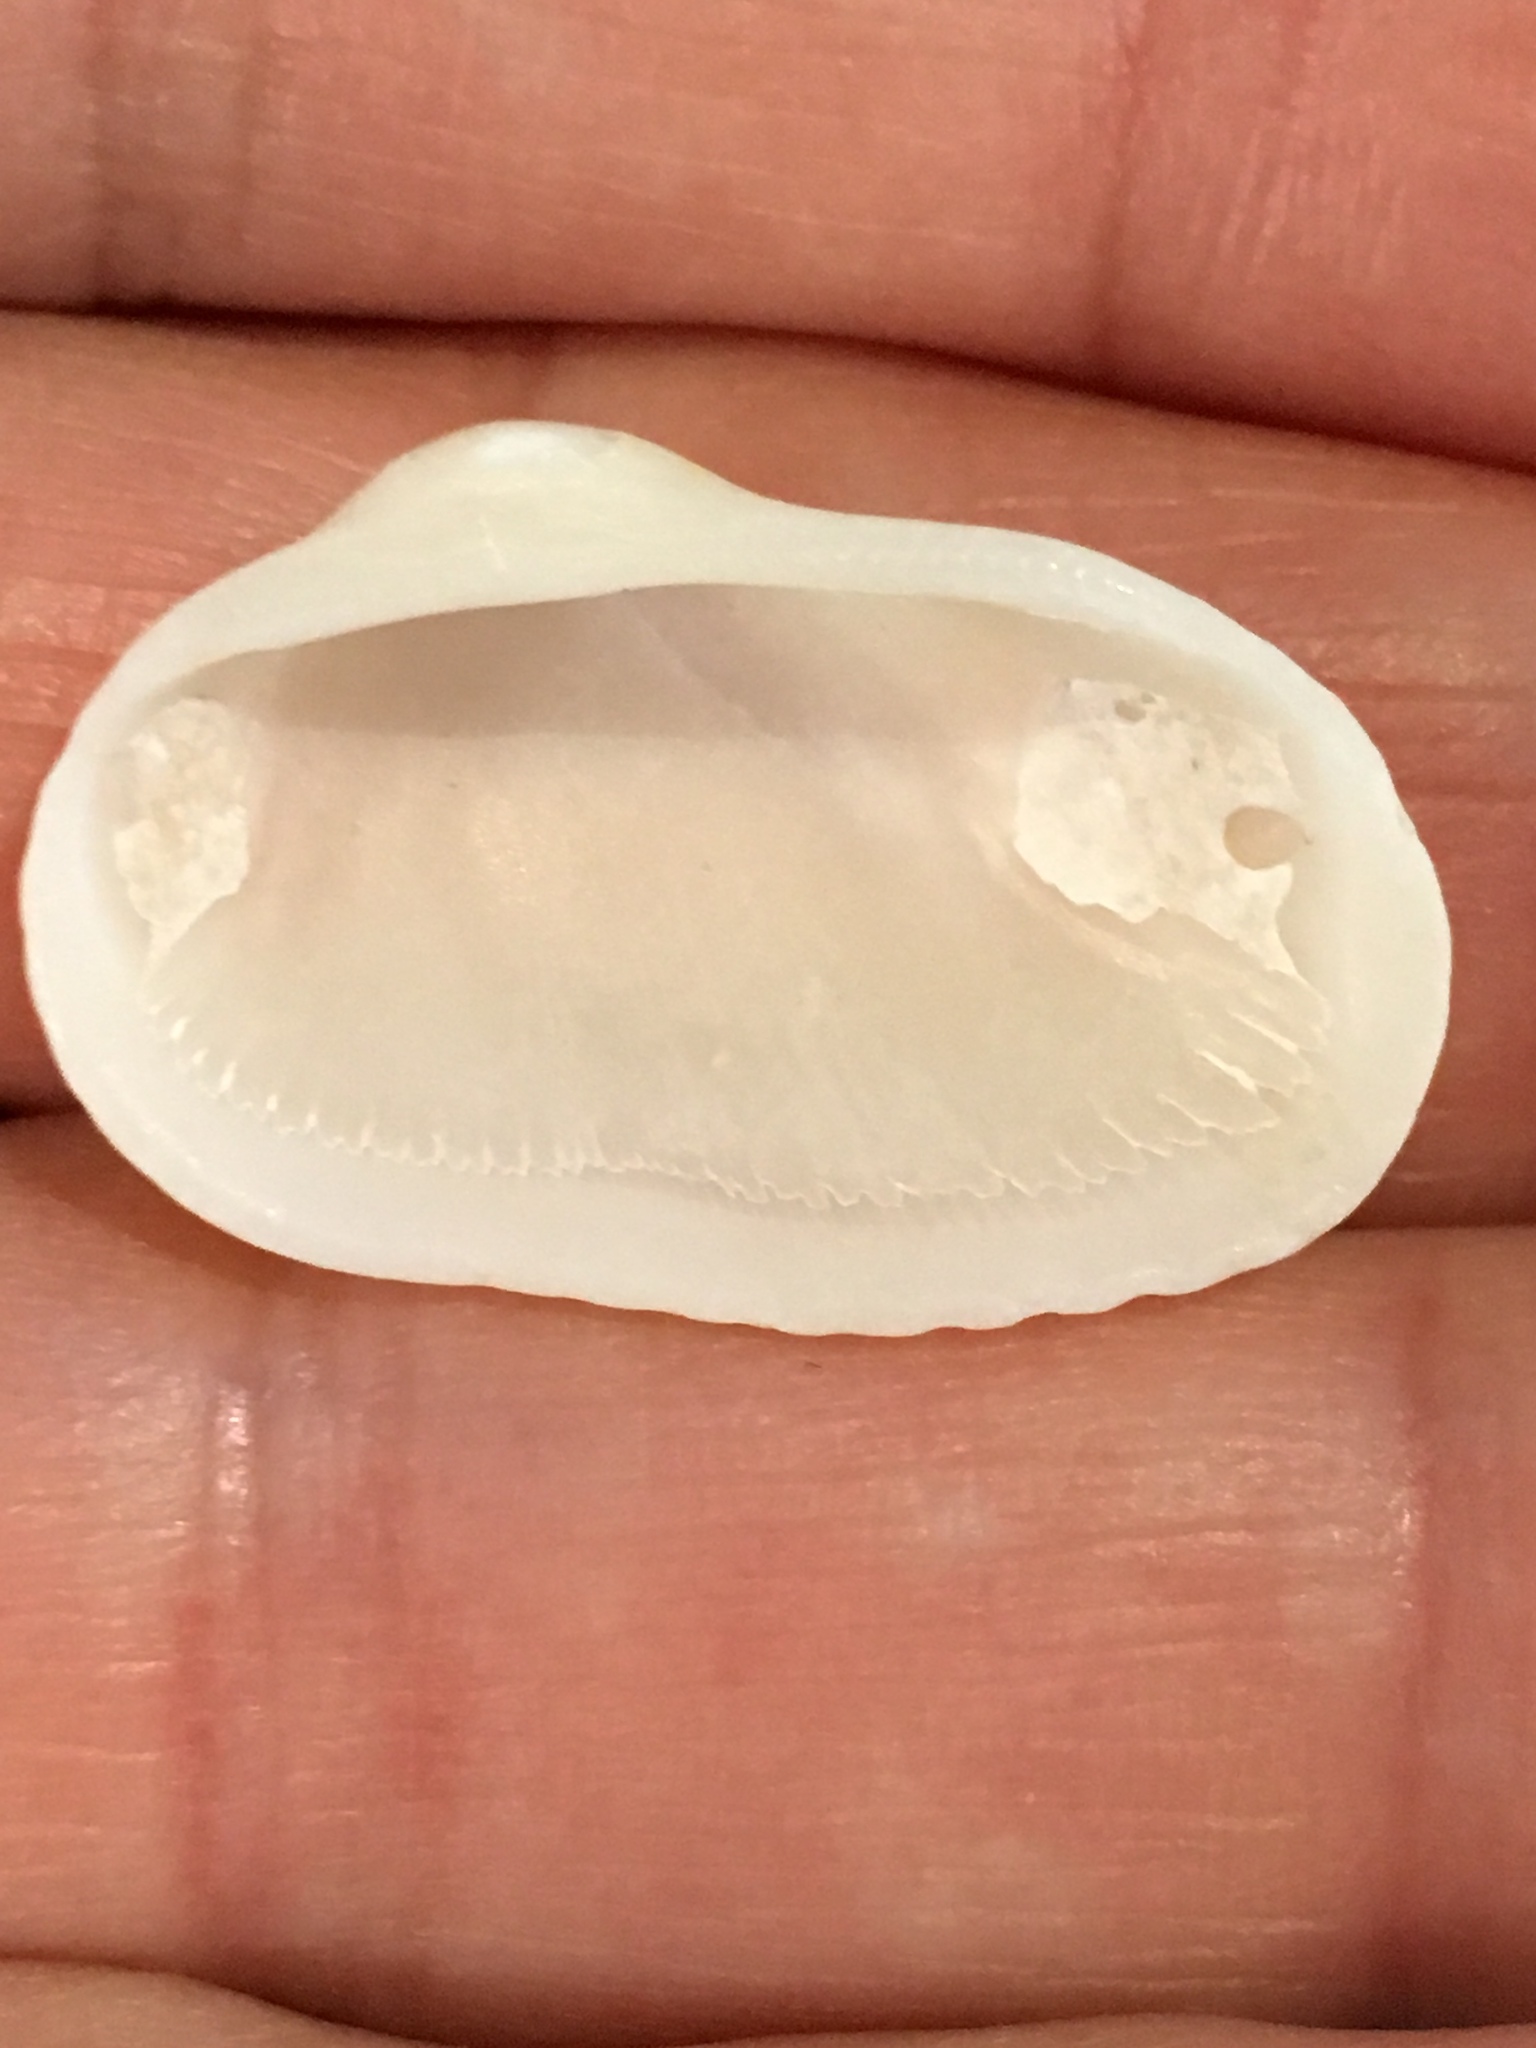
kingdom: Animalia
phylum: Mollusca
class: Bivalvia
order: Arcida
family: Arcidae
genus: Anadara
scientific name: Anadara transversa
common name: Transverse ark
